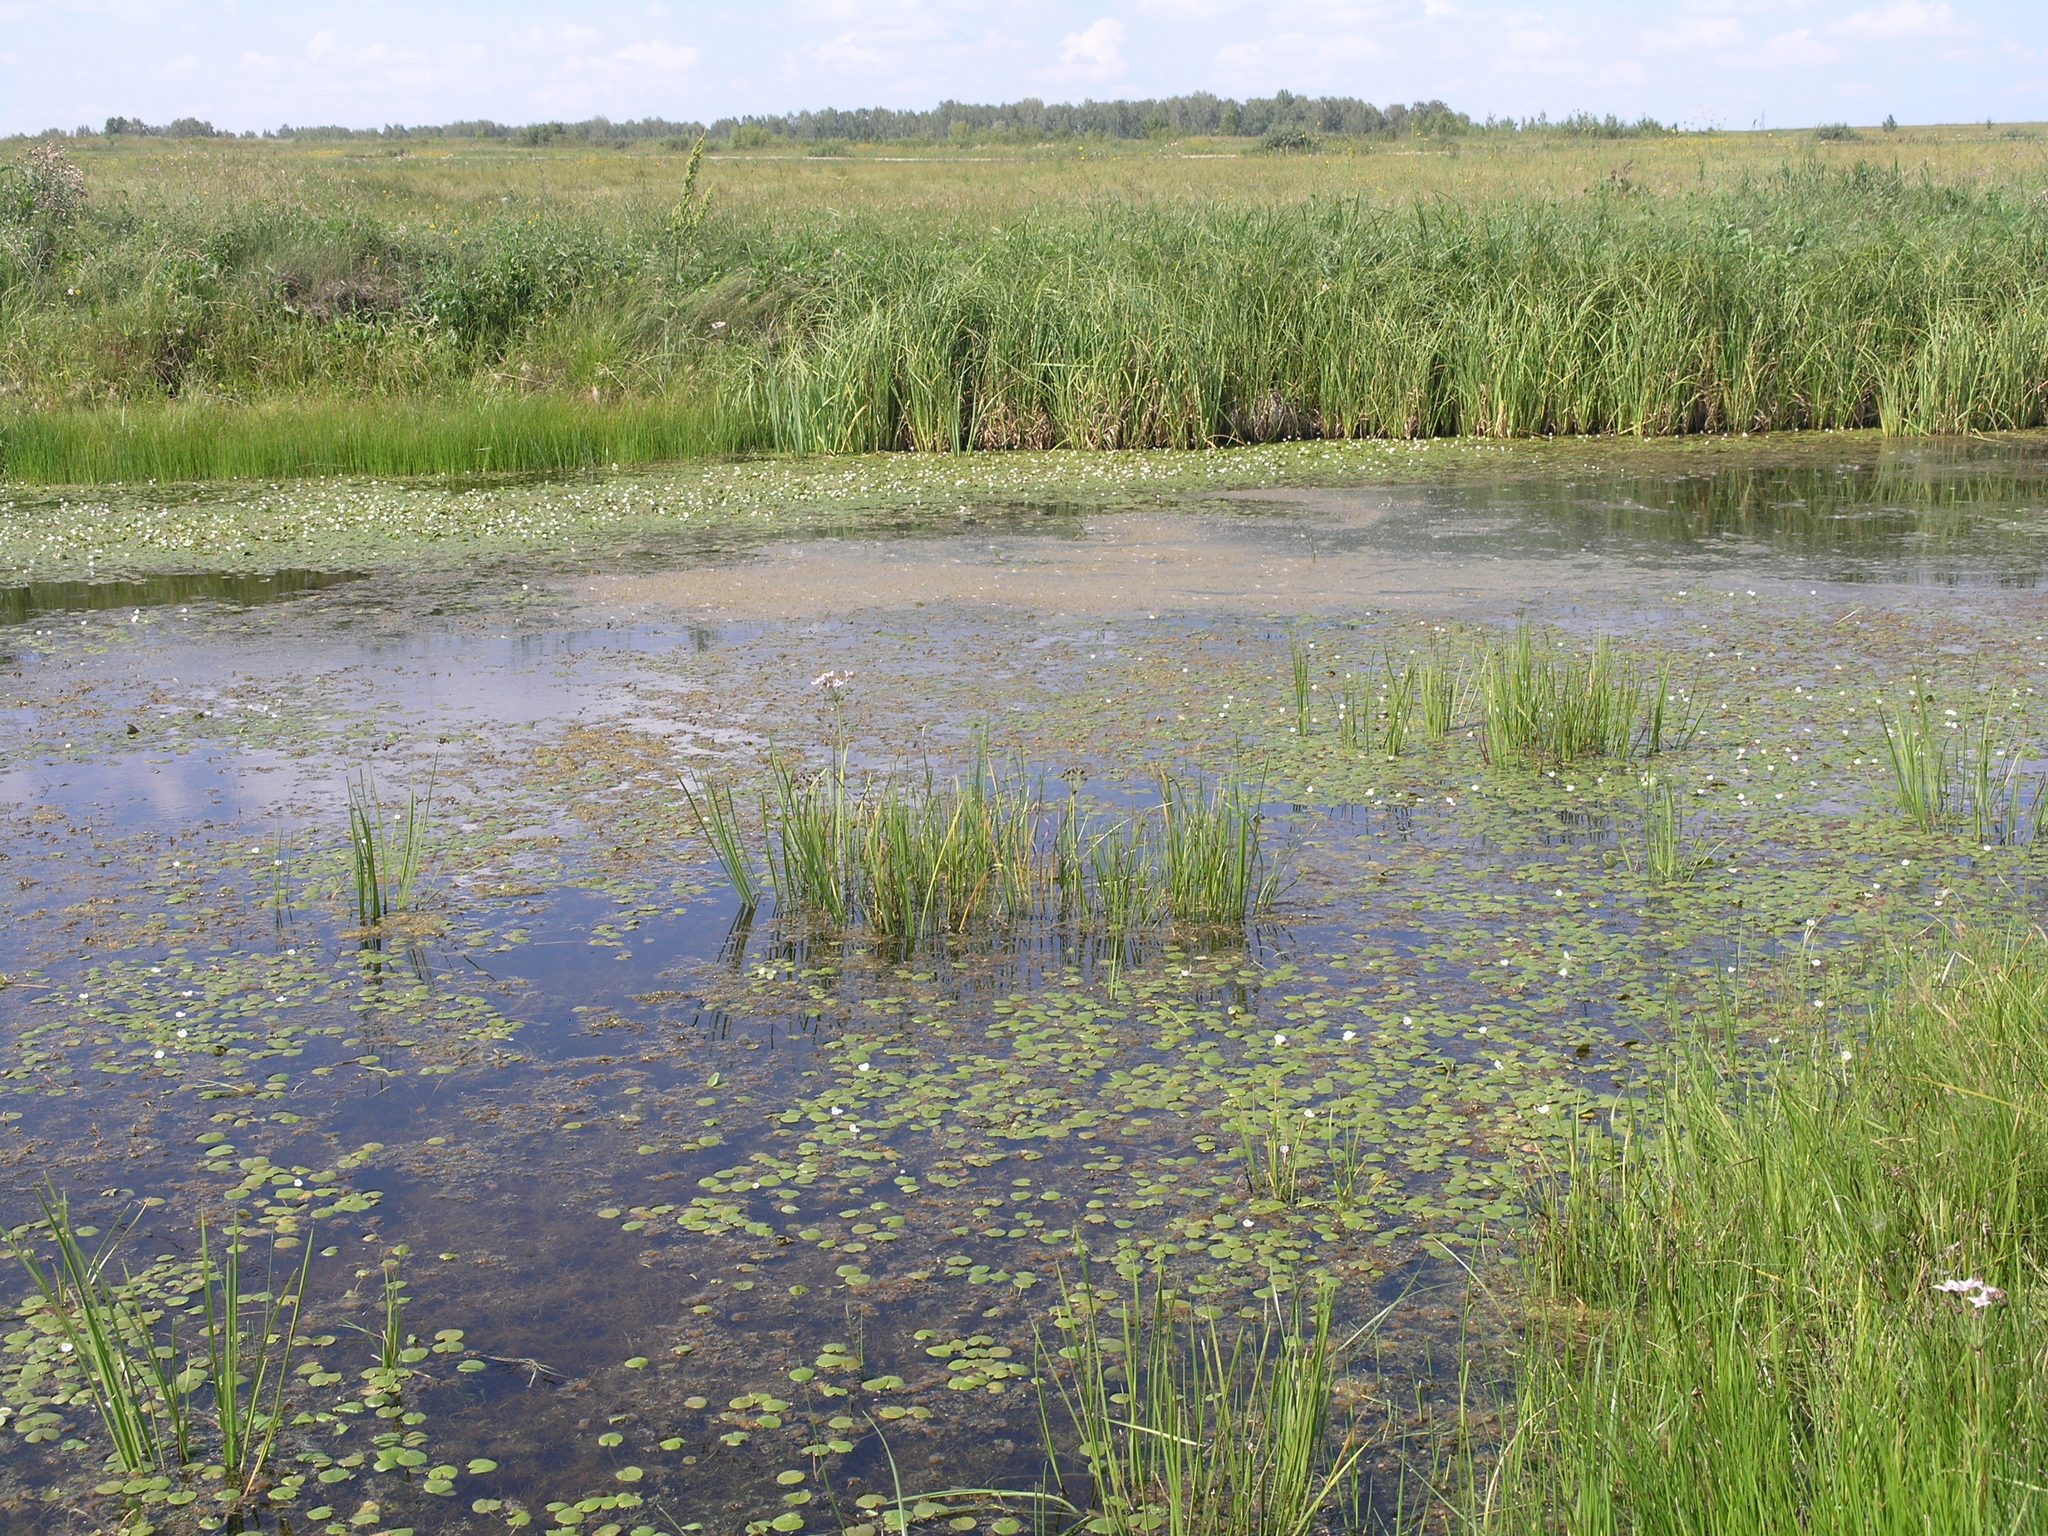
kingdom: Plantae
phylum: Tracheophyta
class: Liliopsida
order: Alismatales
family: Hydrocharitaceae
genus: Hydrocharis
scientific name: Hydrocharis morsus-ranae
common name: Frogbit
